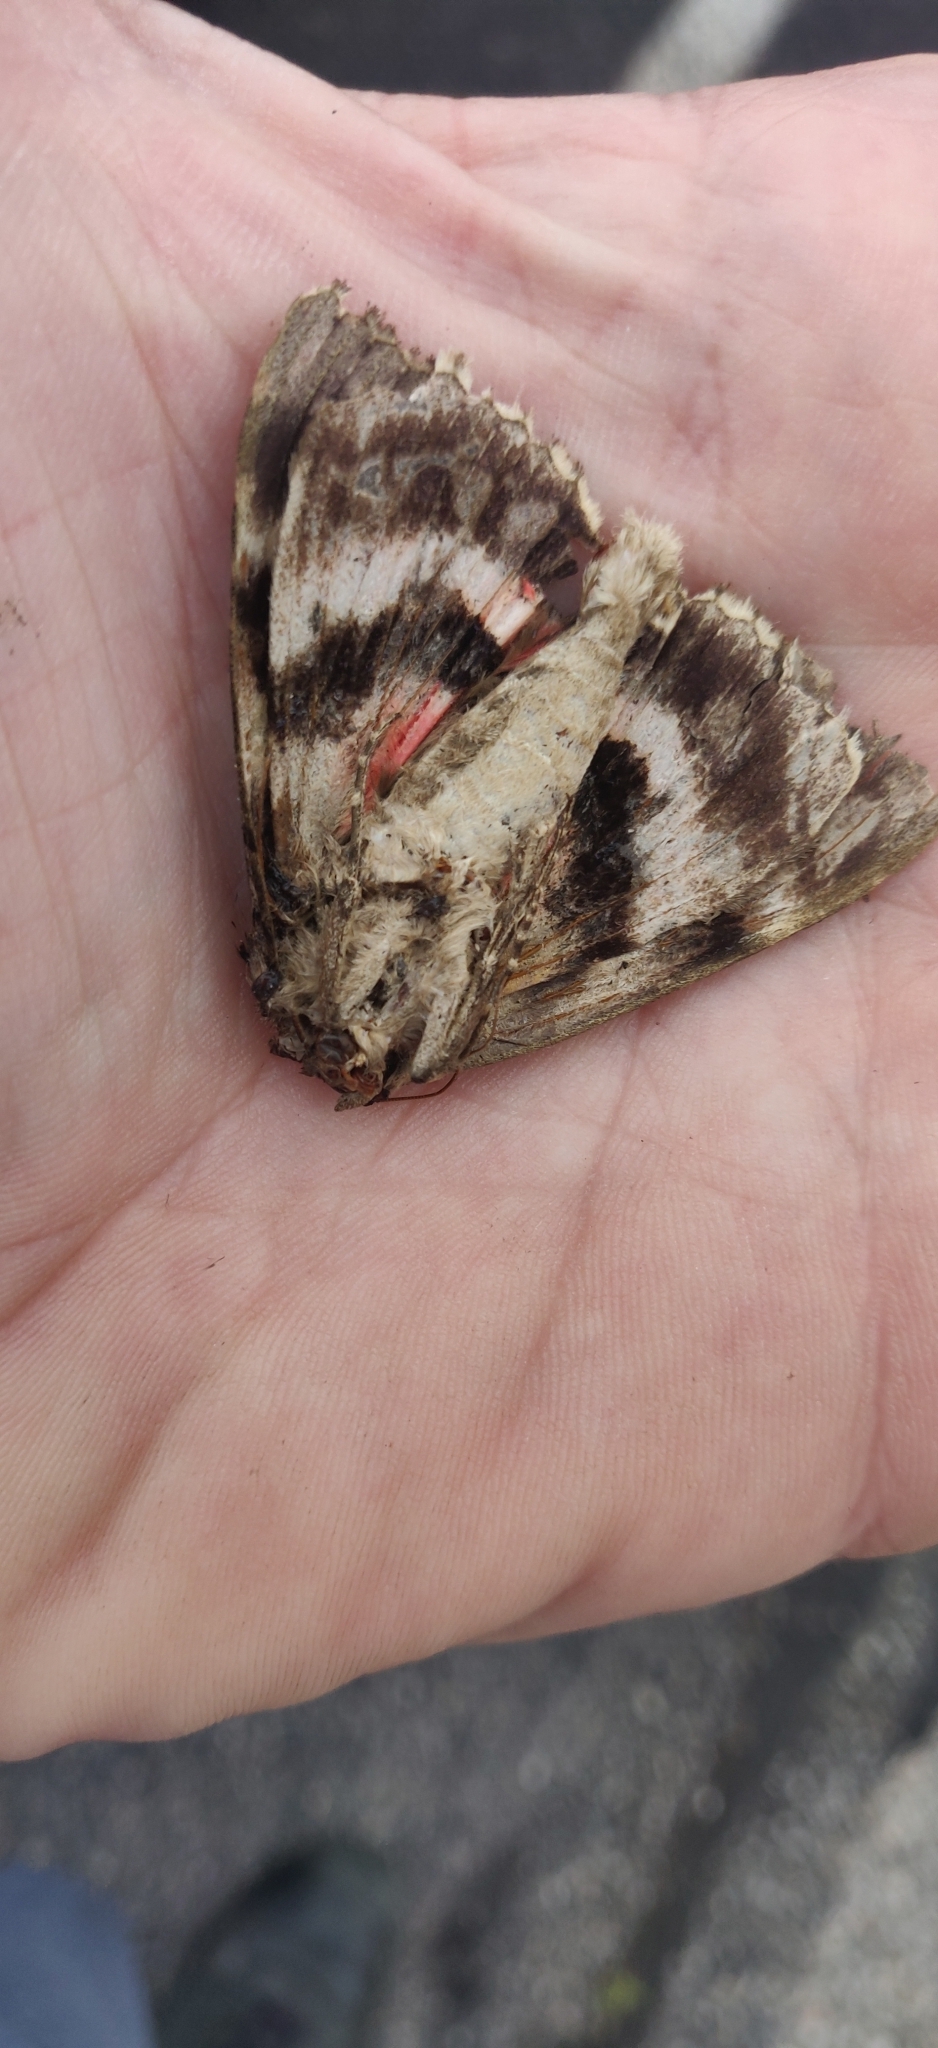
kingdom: Animalia
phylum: Arthropoda
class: Insecta
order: Lepidoptera
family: Erebidae
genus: Catocala
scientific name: Catocala cara
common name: Darling underwing
